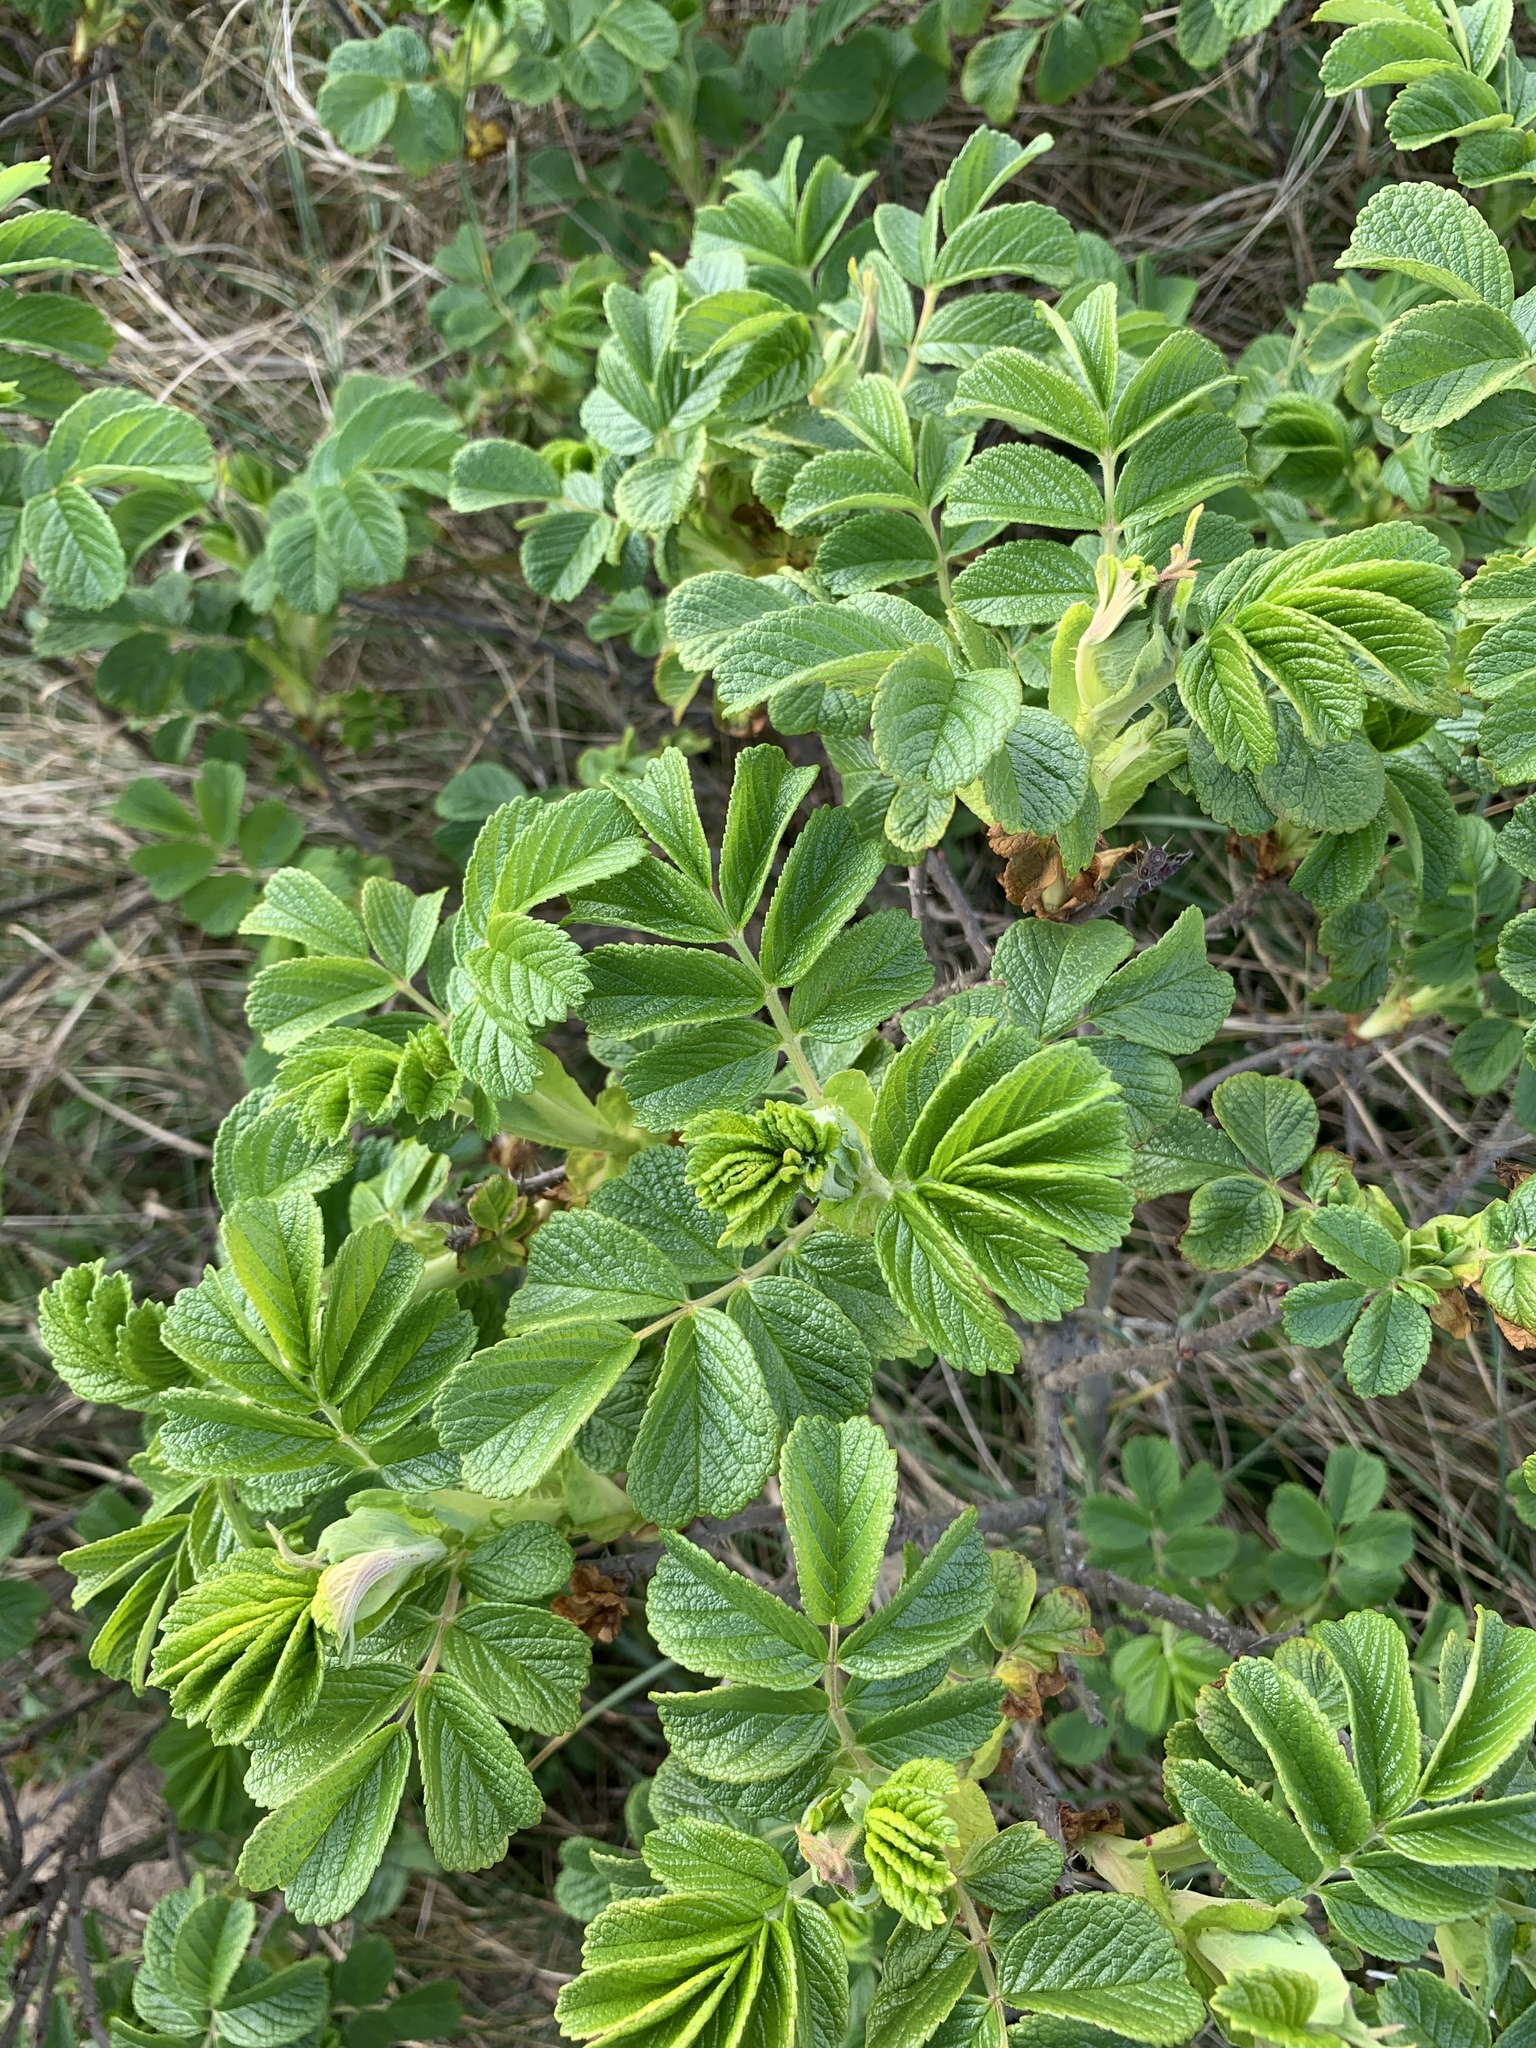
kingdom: Plantae
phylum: Tracheophyta
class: Magnoliopsida
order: Rosales
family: Rosaceae
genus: Rosa
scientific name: Rosa rugosa
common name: Japanese rose
